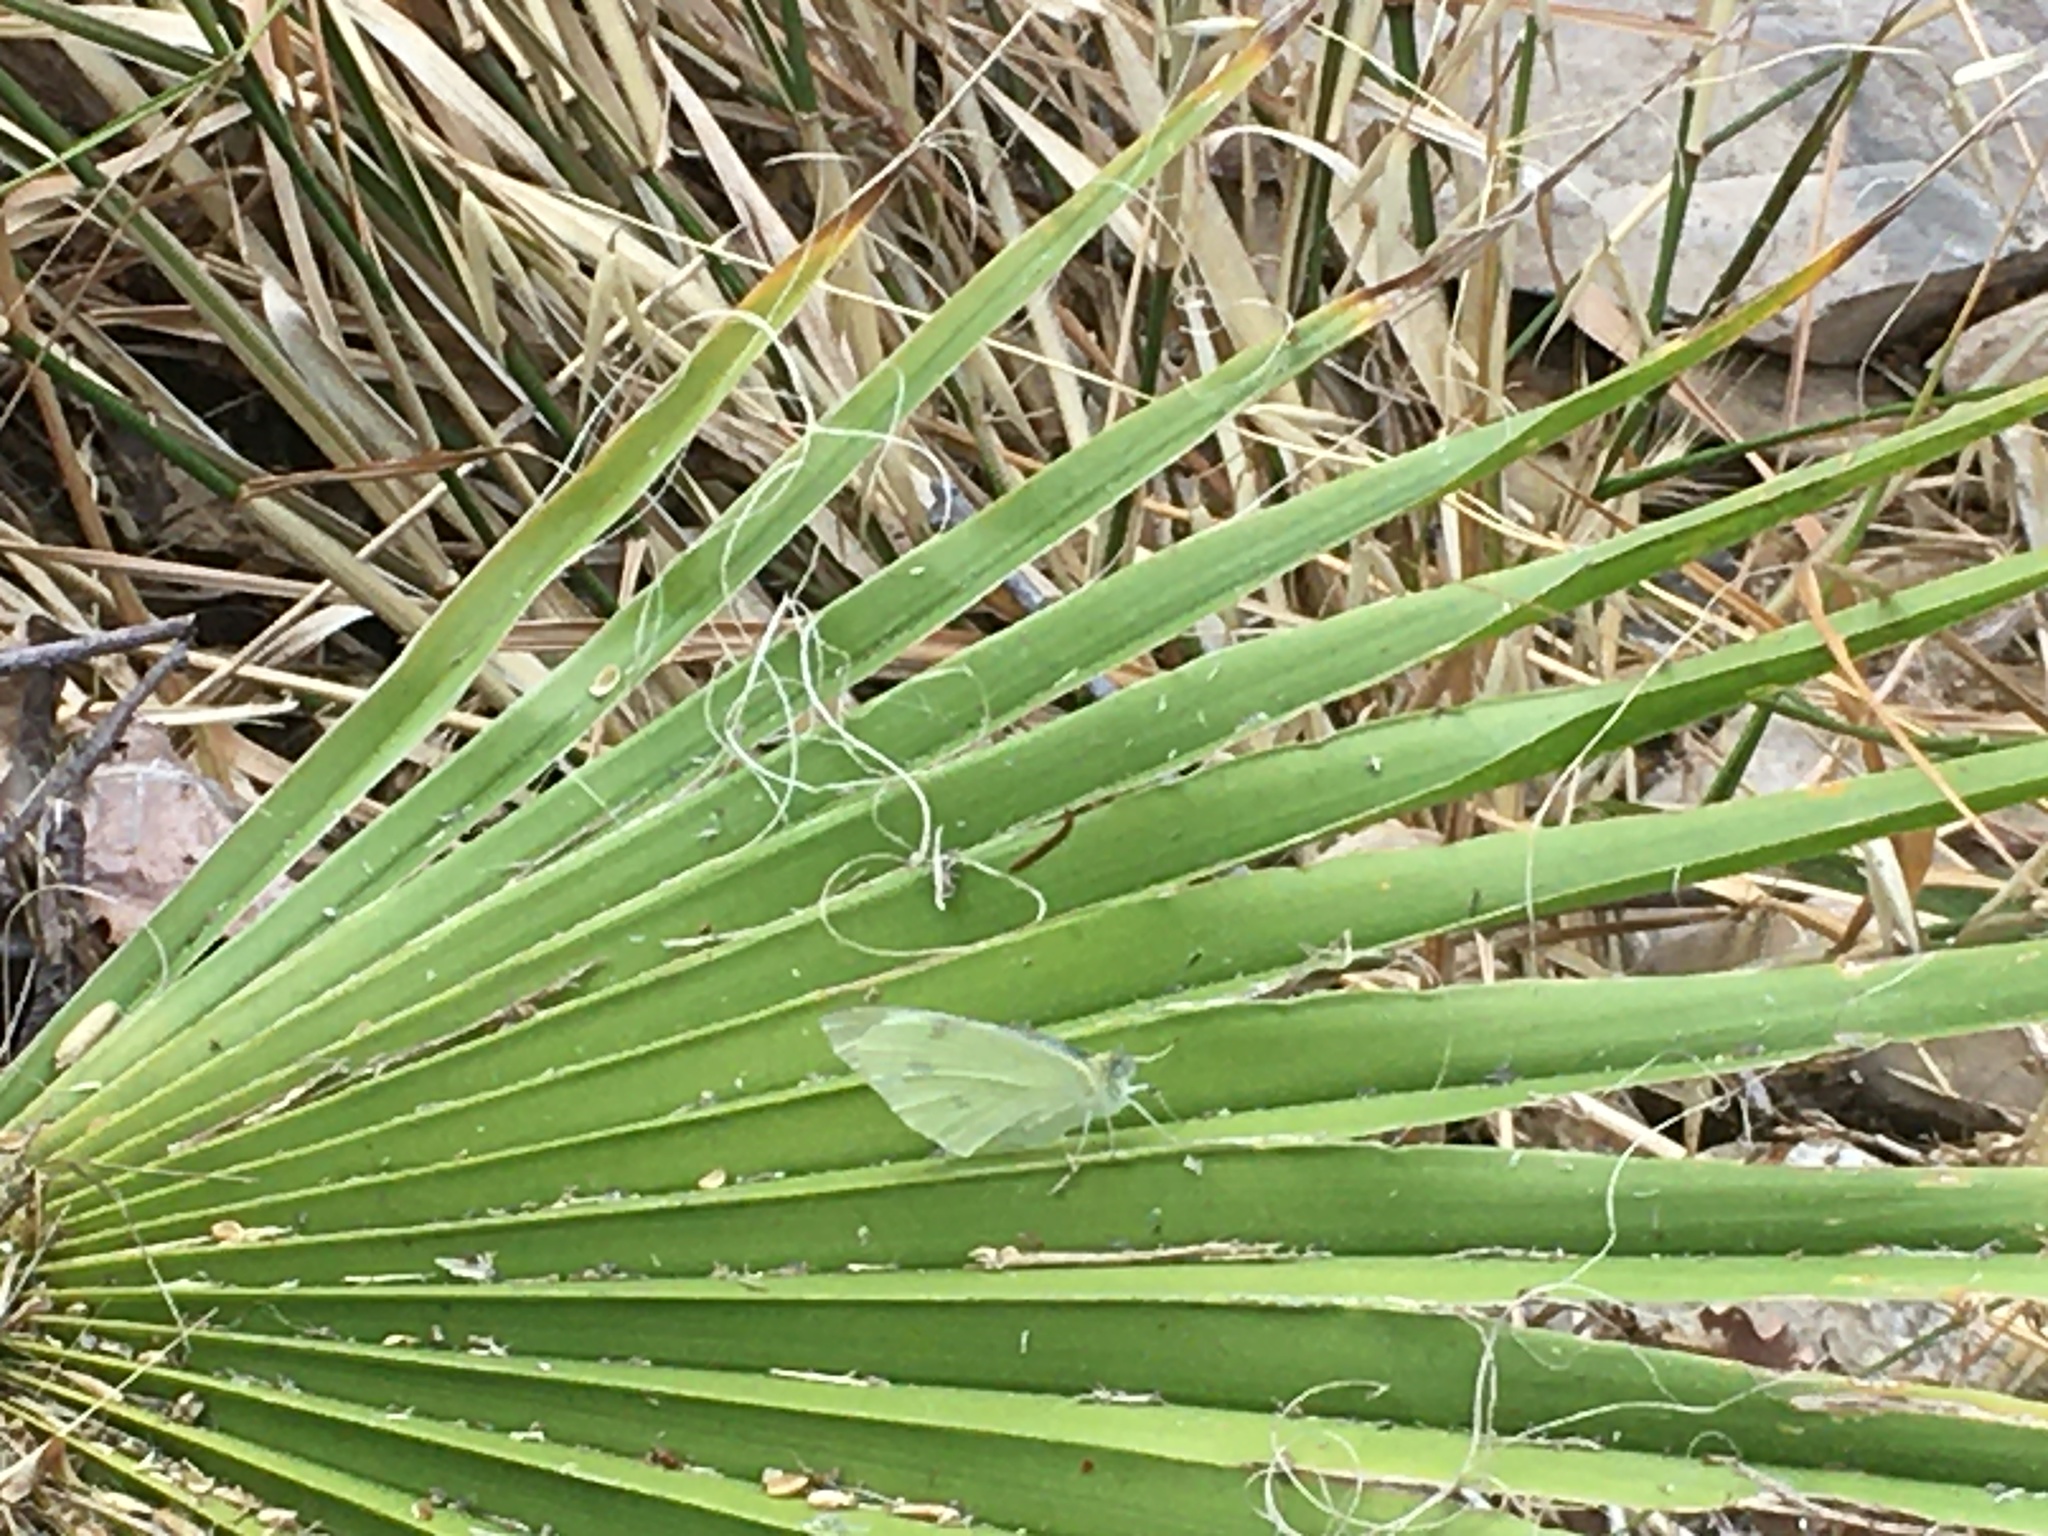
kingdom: Animalia
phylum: Arthropoda
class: Insecta
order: Lepidoptera
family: Pieridae
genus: Pieris
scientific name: Pieris rapae
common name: Small white
